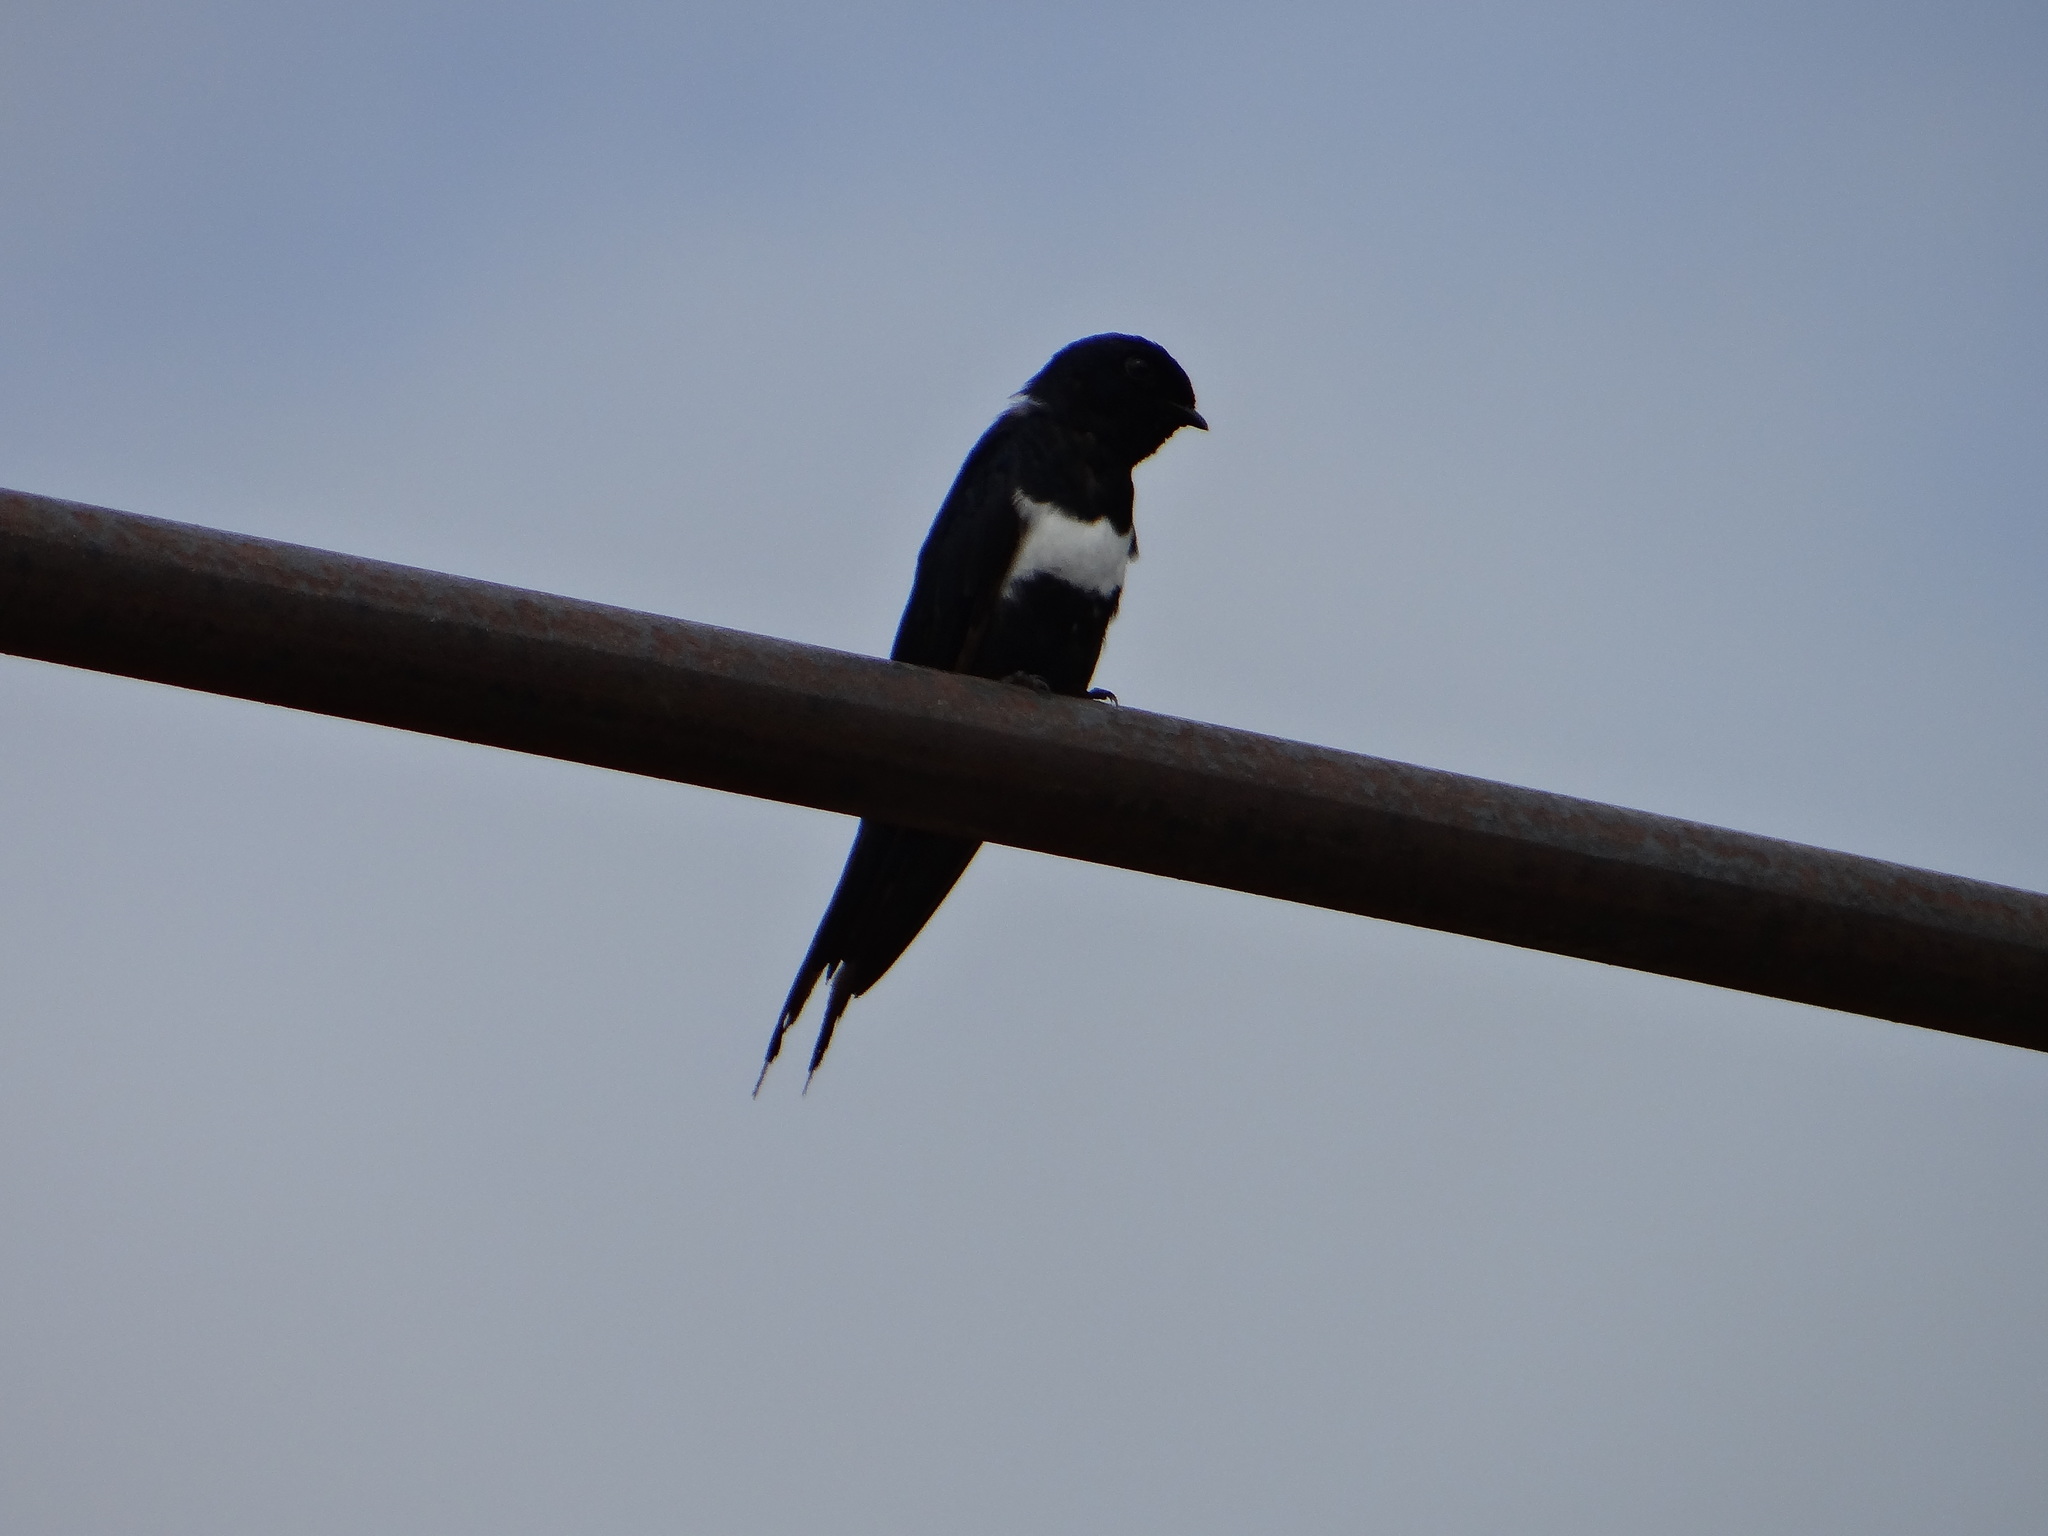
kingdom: Animalia
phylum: Chordata
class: Aves
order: Passeriformes
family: Hirundinidae
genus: Atticora
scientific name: Atticora fasciata
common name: White-banded swallow
